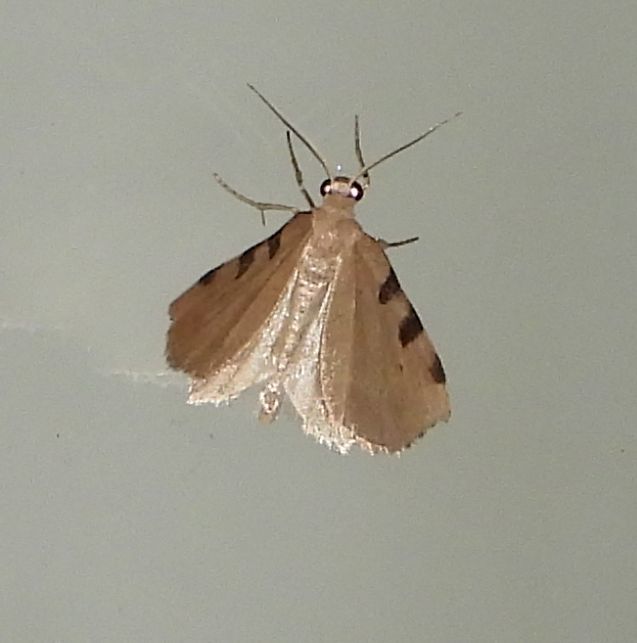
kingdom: Animalia
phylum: Arthropoda
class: Insecta
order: Lepidoptera
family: Geometridae
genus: Heterophleps
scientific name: Heterophleps triguttaria
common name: Three-spotted fillip
